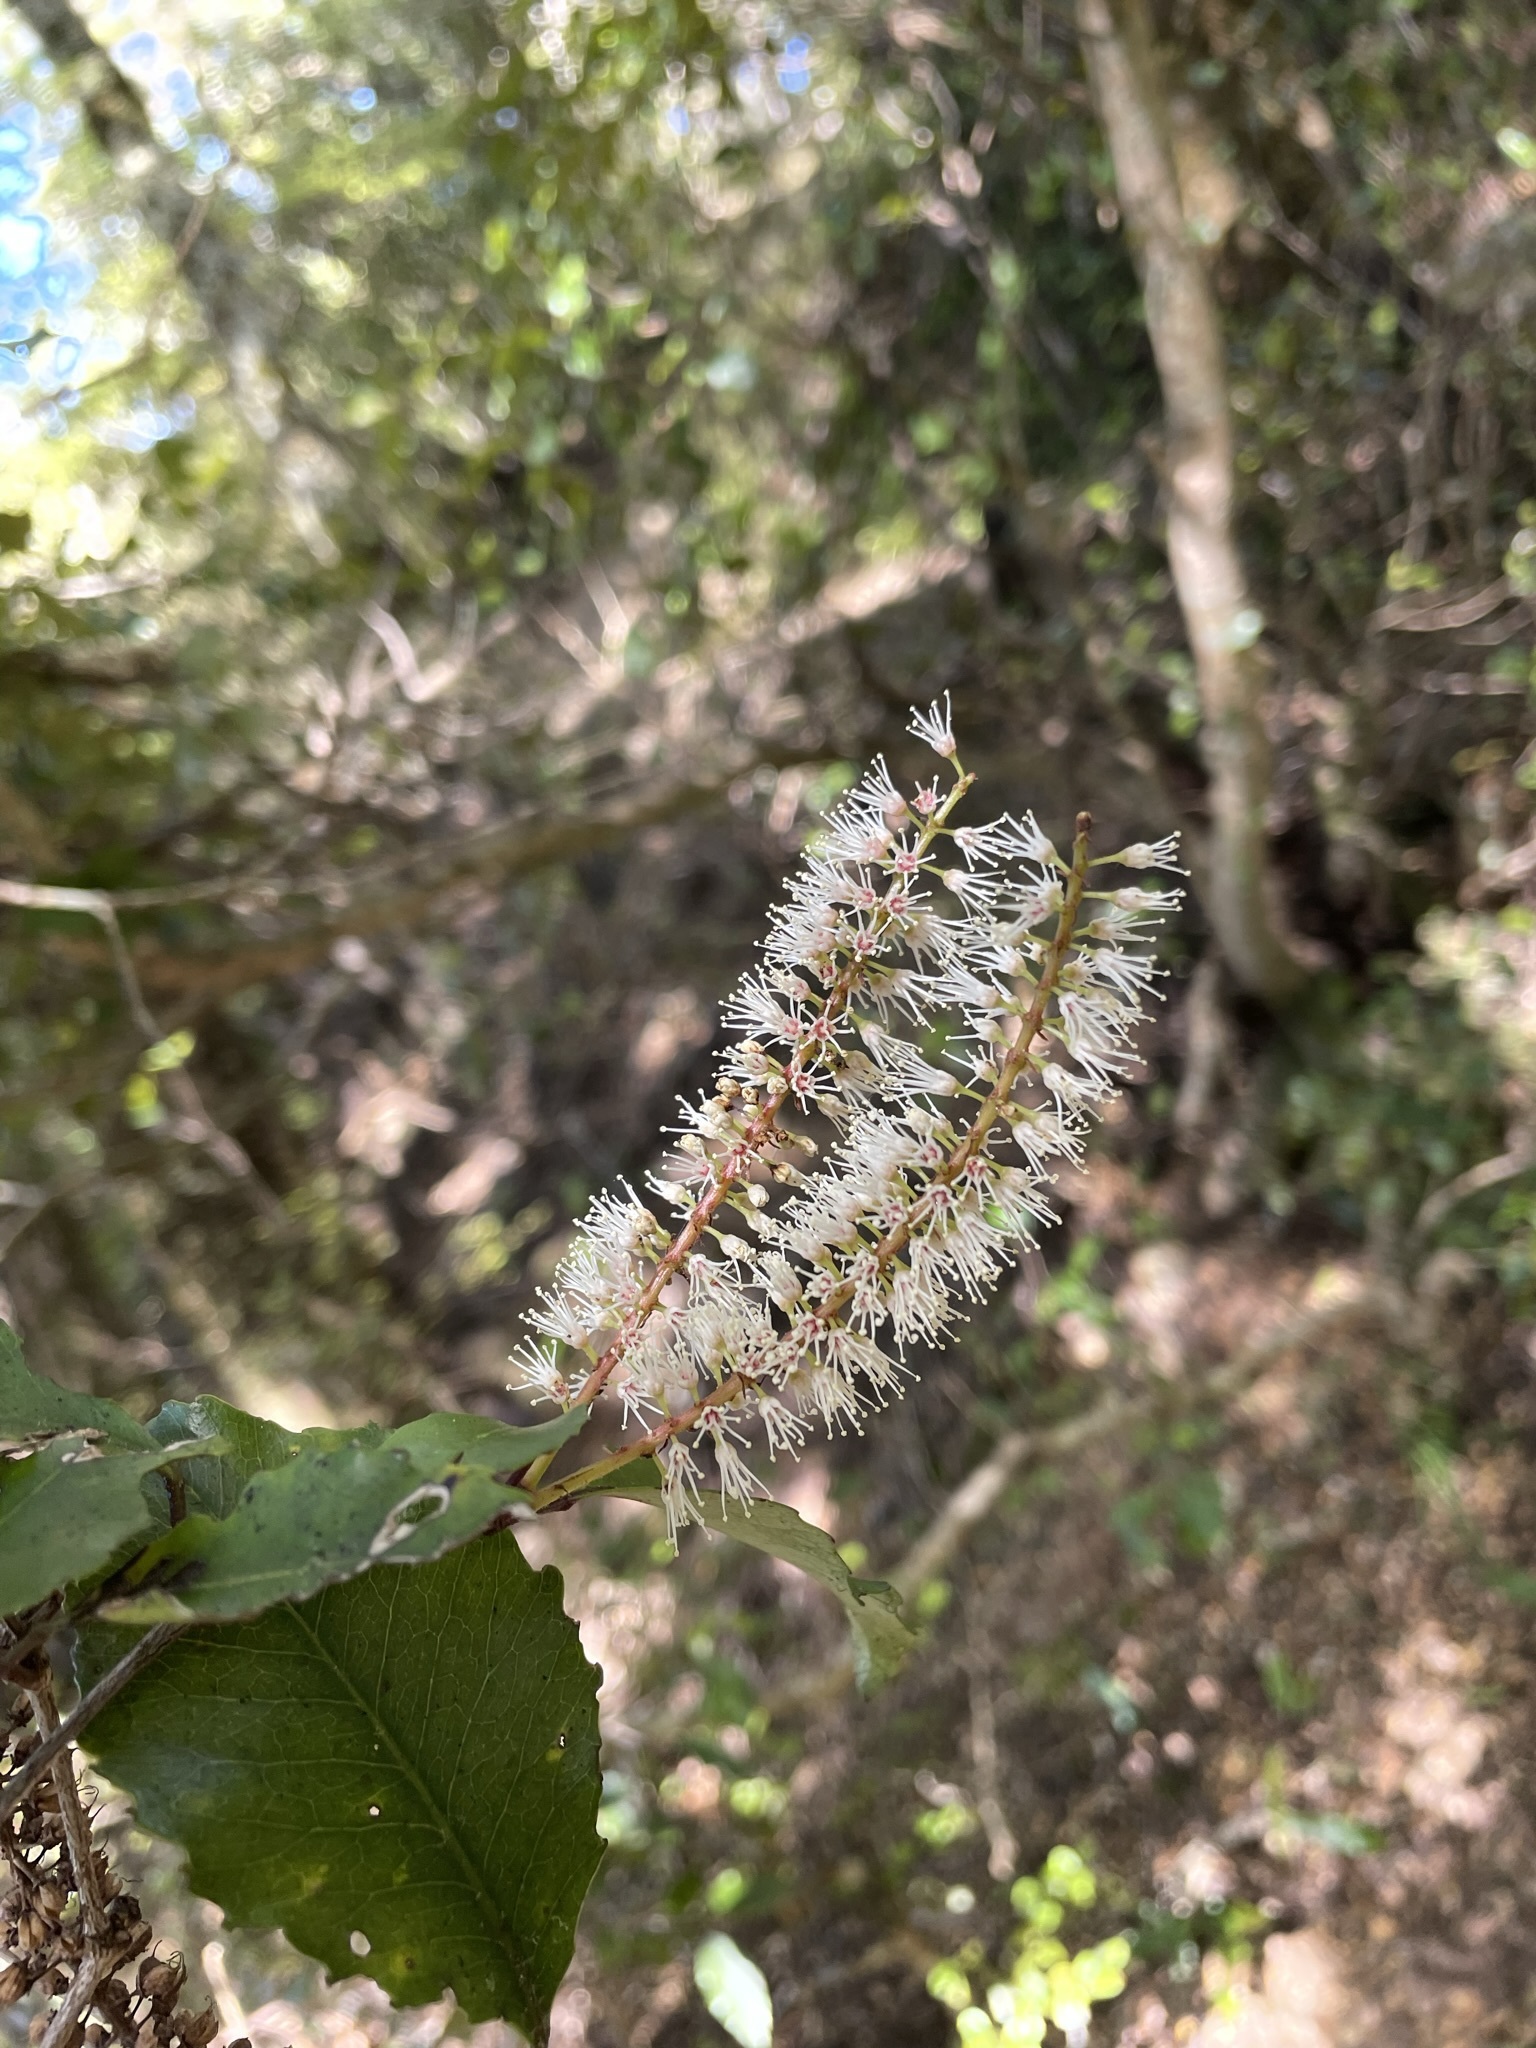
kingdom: Plantae
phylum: Tracheophyta
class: Magnoliopsida
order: Oxalidales
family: Cunoniaceae
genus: Pterophylla
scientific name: Pterophylla racemosa
